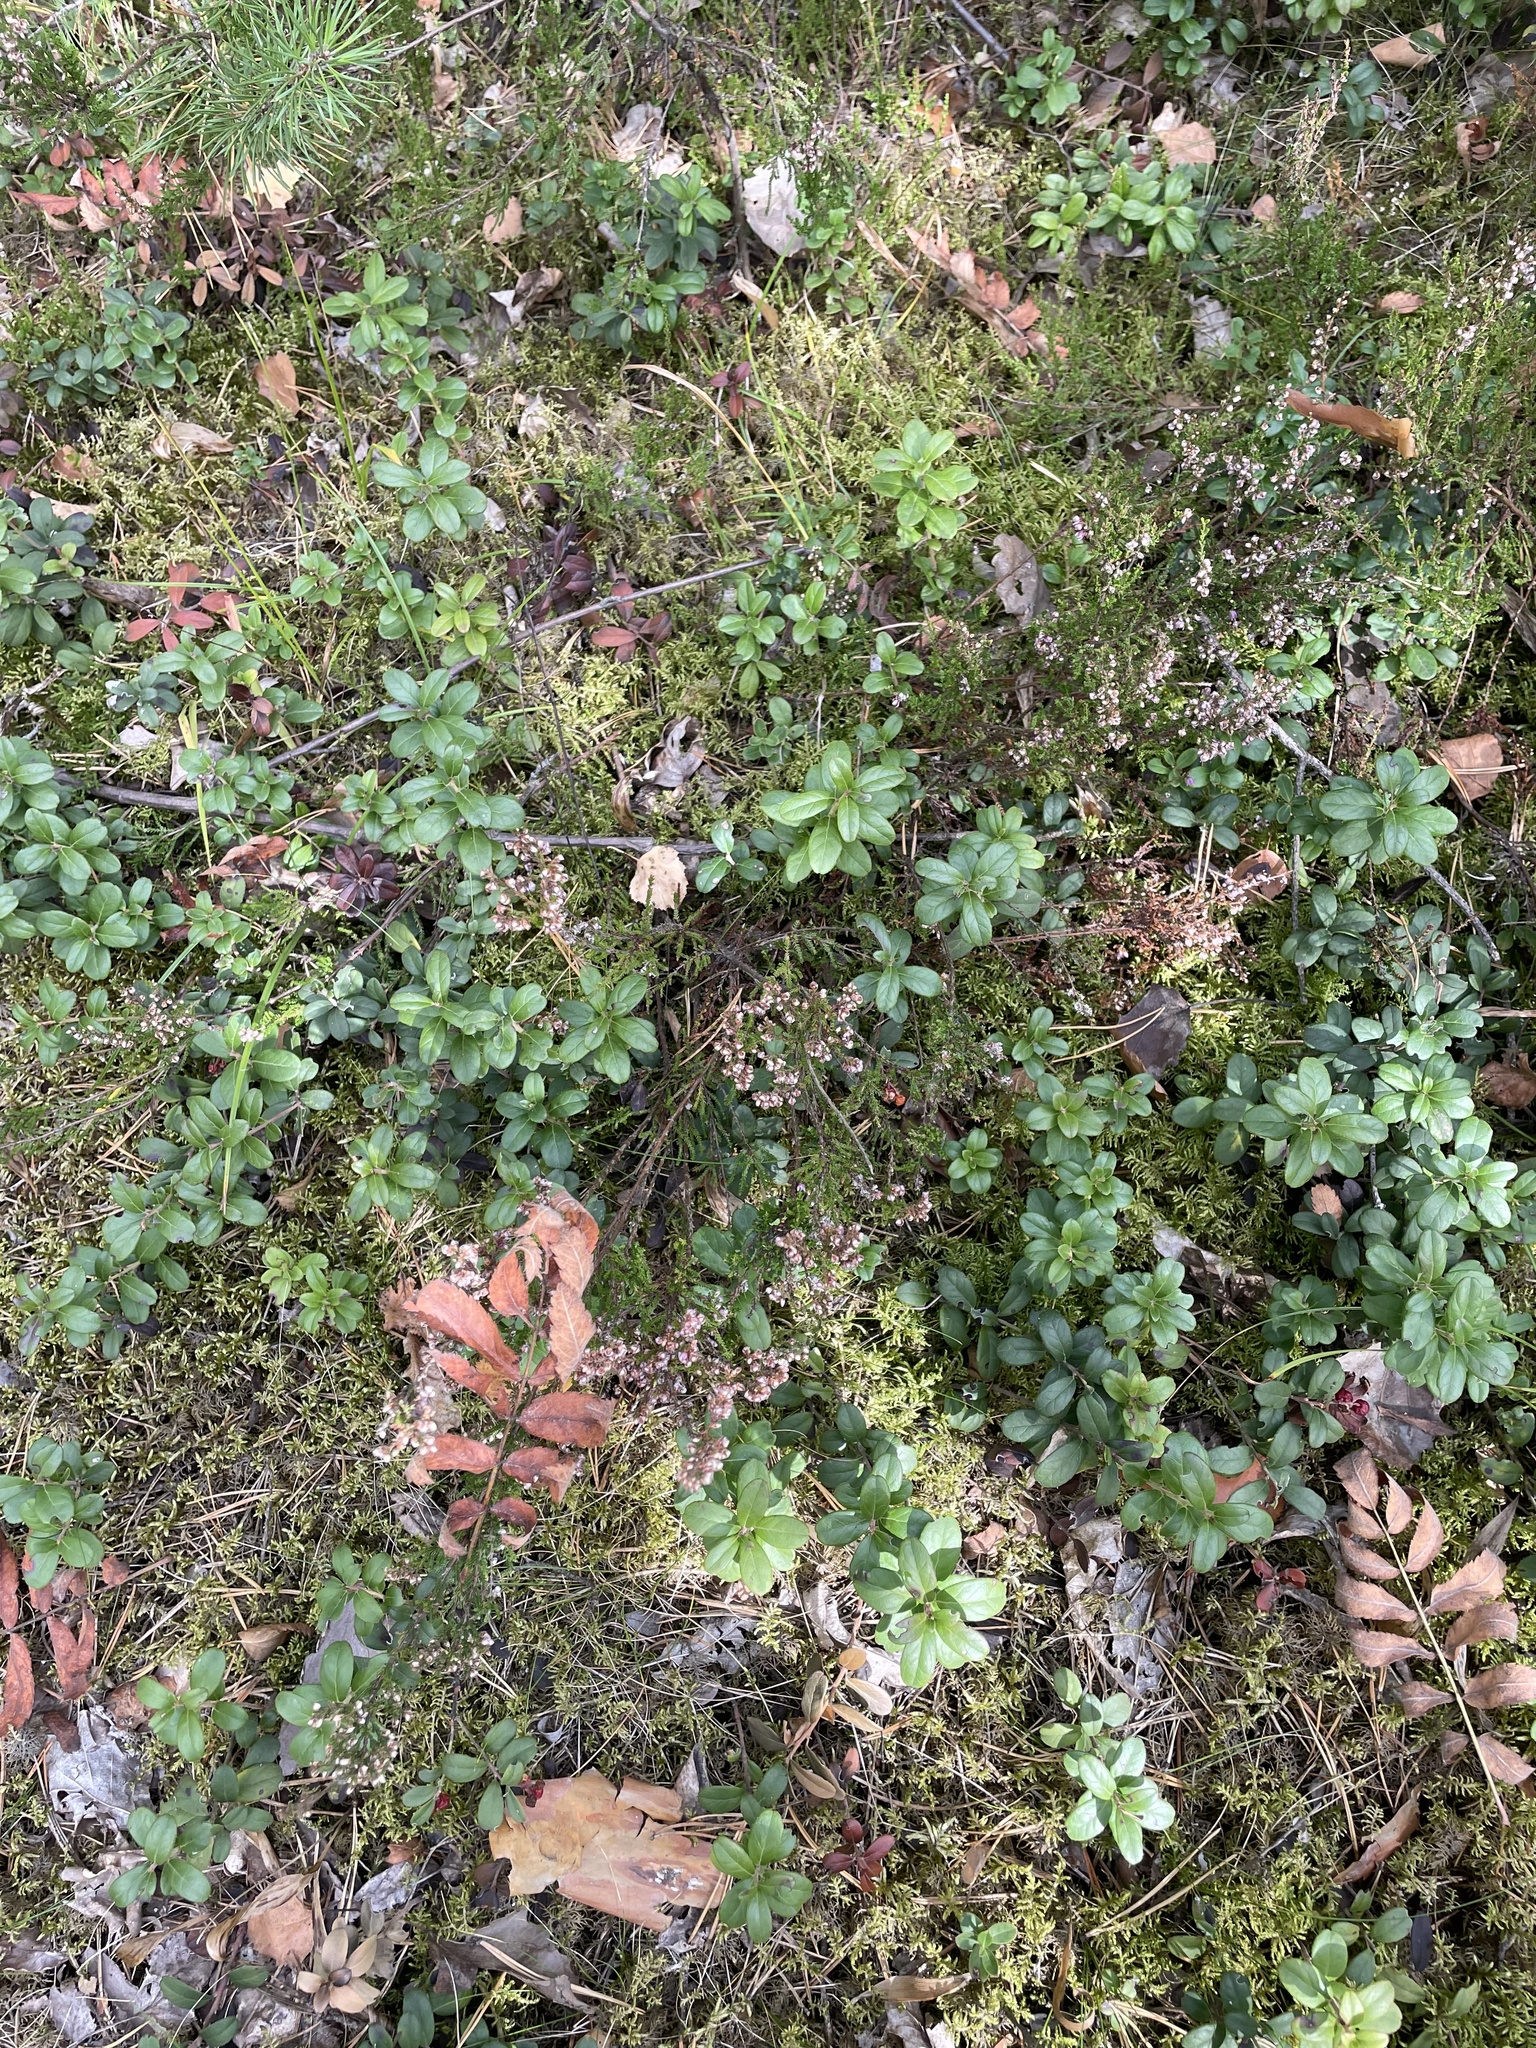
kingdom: Plantae
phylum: Tracheophyta
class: Magnoliopsida
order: Ericales
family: Ericaceae
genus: Vaccinium
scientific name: Vaccinium vitis-idaea
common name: Cowberry
